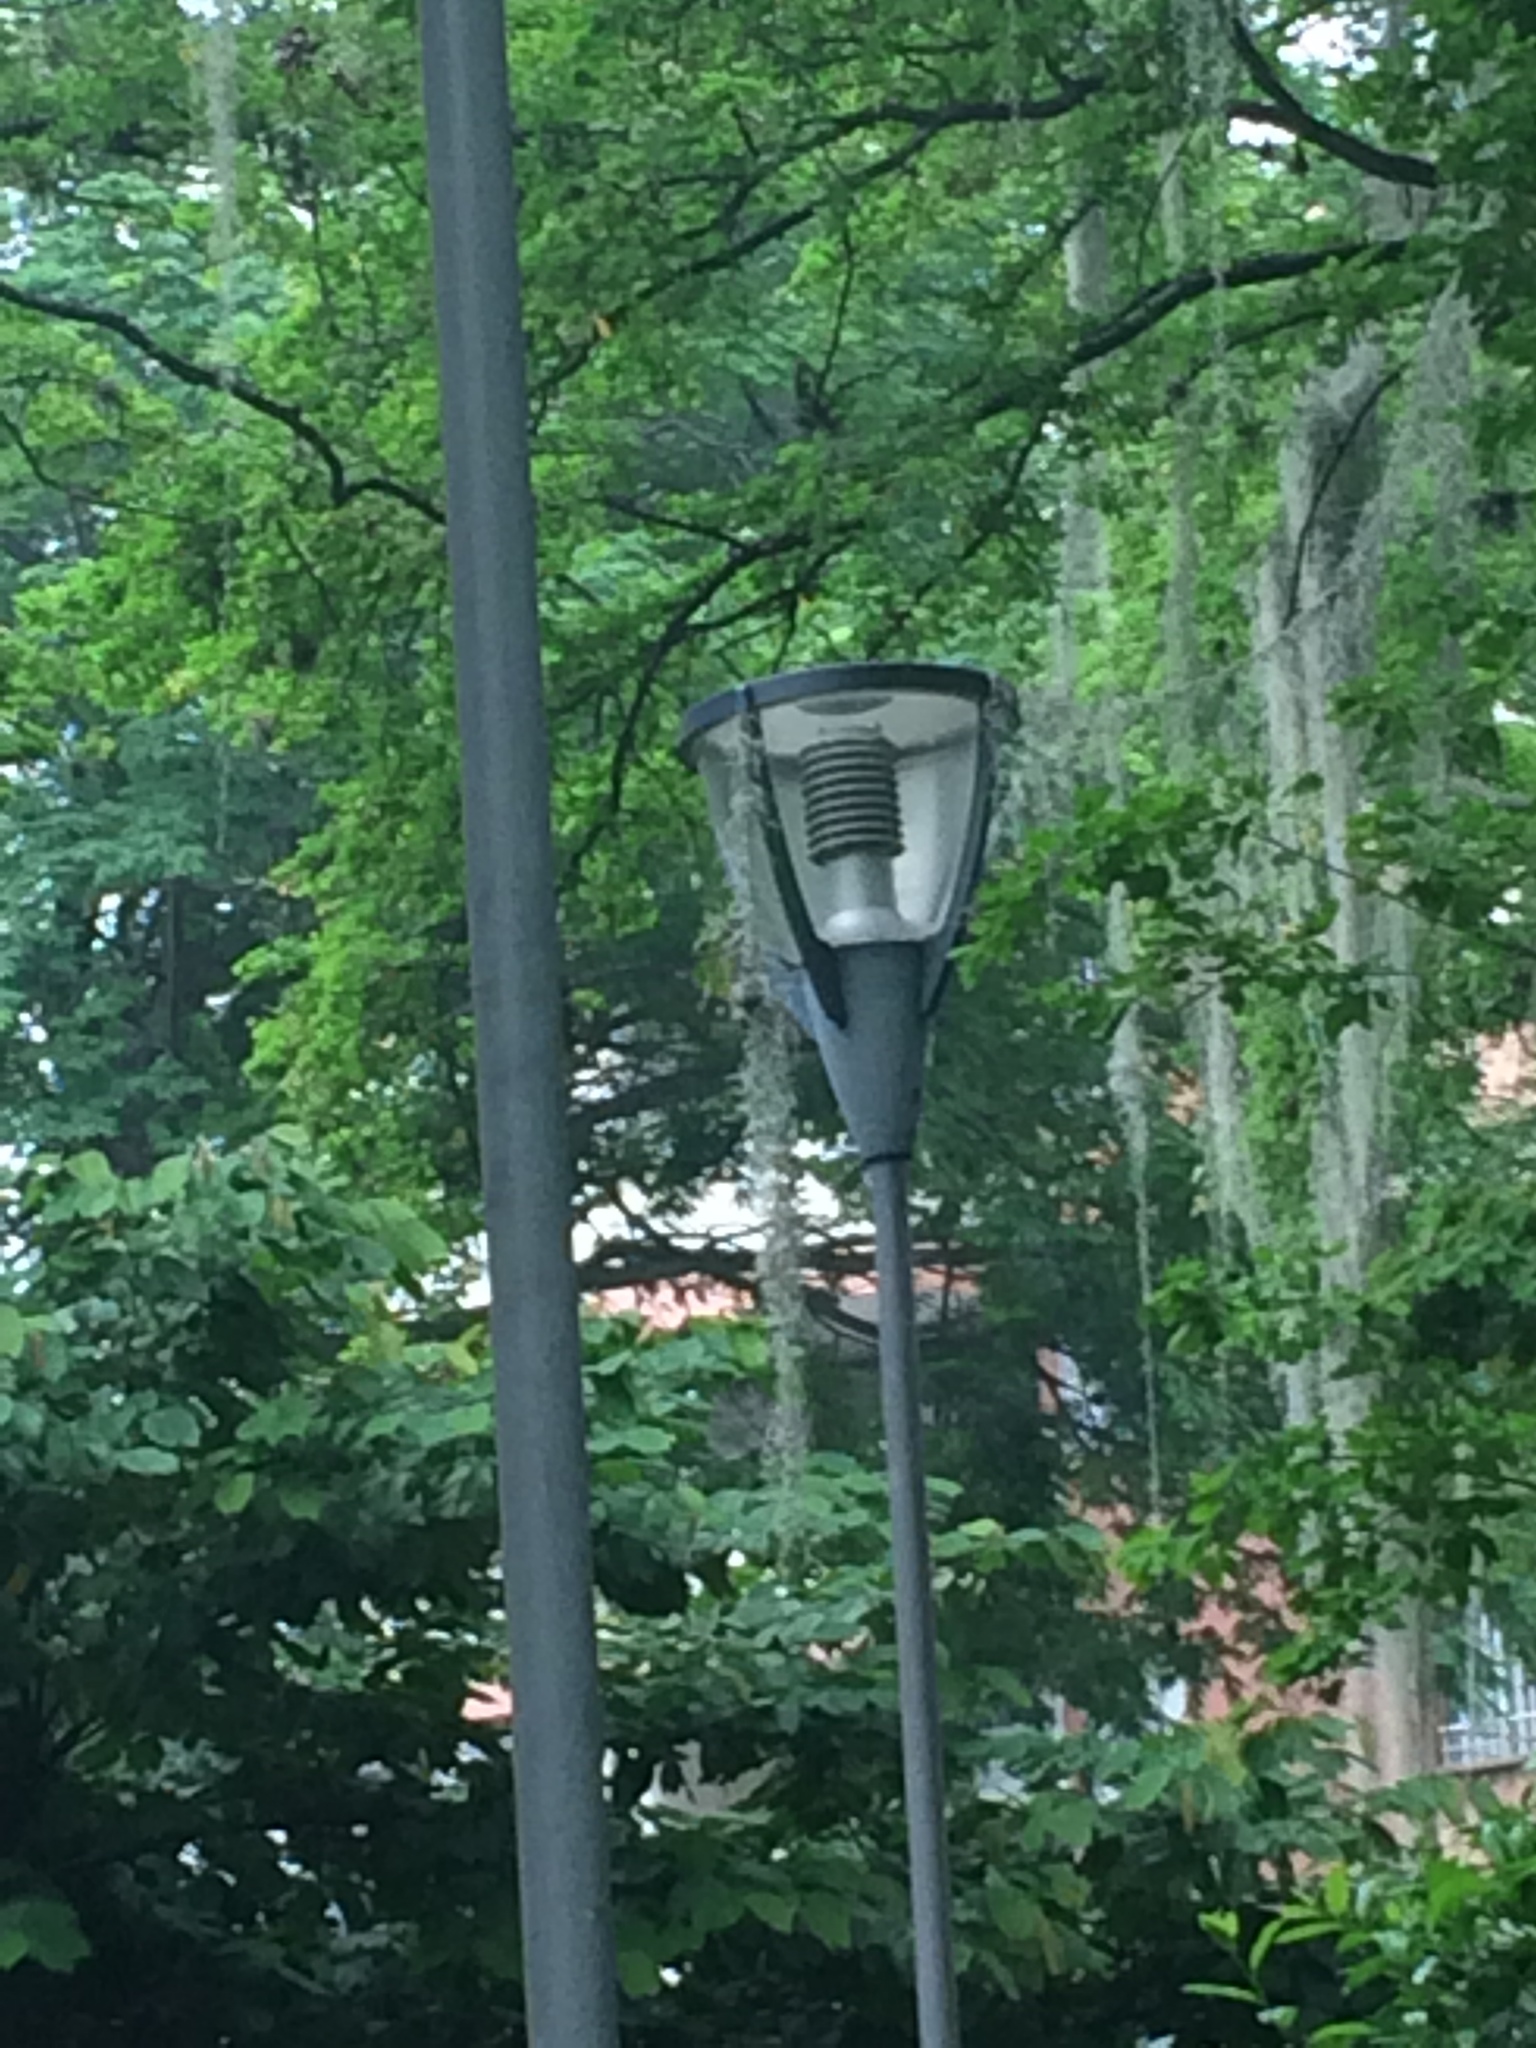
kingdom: Animalia
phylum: Chordata
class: Aves
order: Passeriformes
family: Thraupidae
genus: Thraupis
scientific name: Thraupis palmarum
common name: Palm tanager
